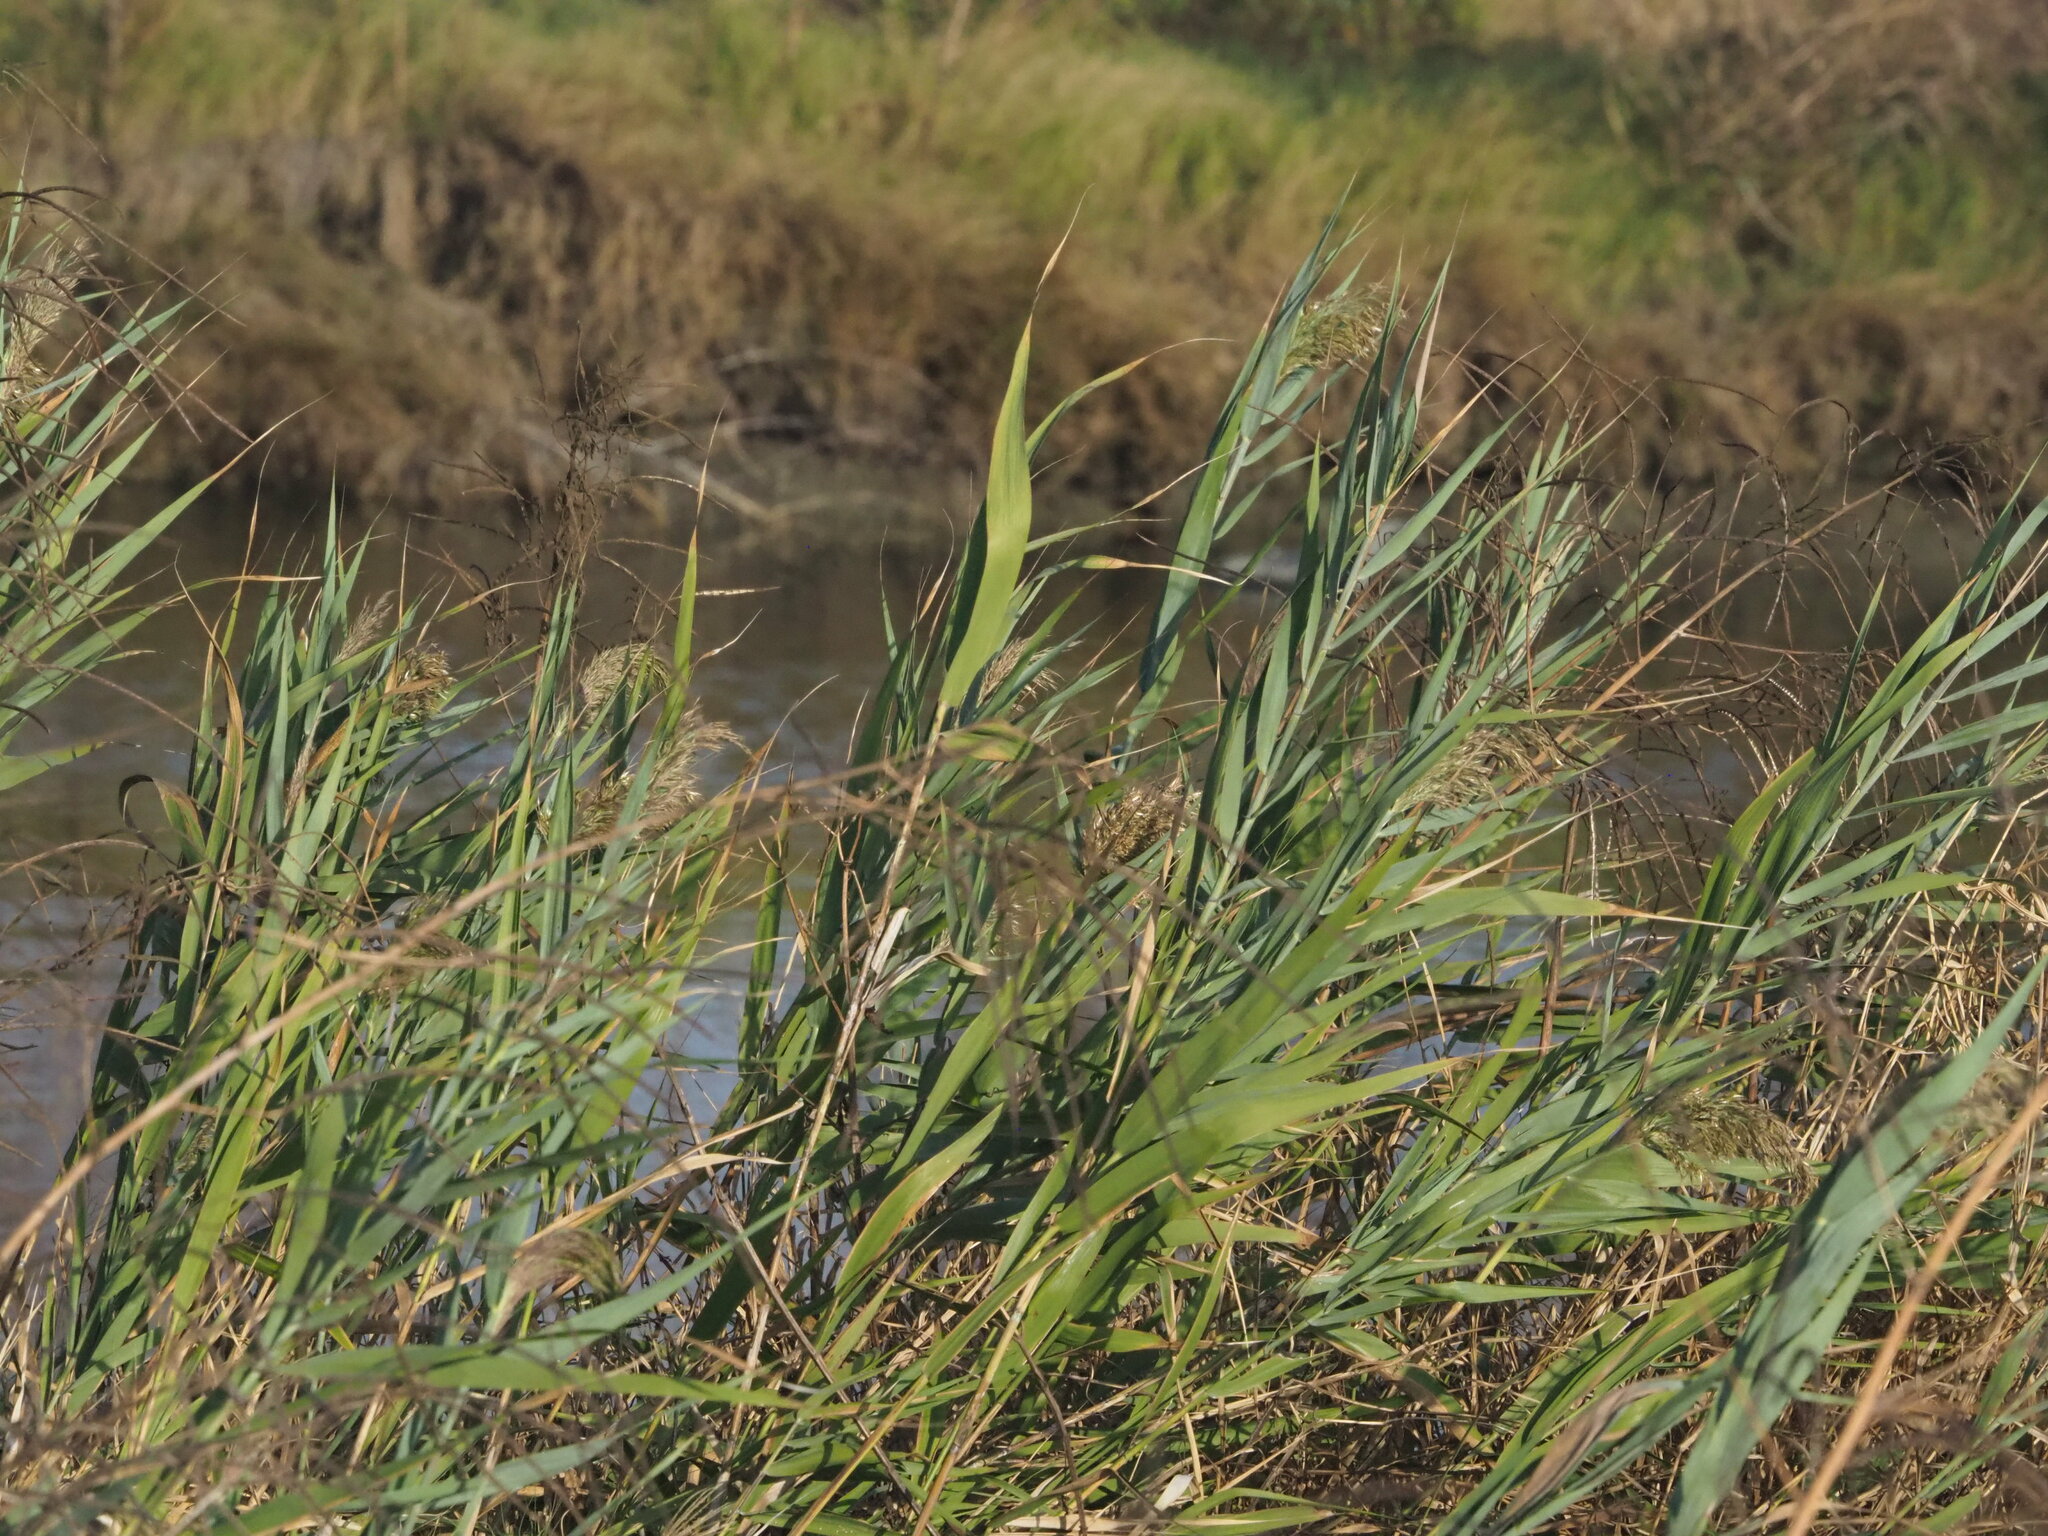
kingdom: Plantae
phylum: Tracheophyta
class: Liliopsida
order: Poales
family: Poaceae
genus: Phragmites
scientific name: Phragmites australis
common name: Common reed
